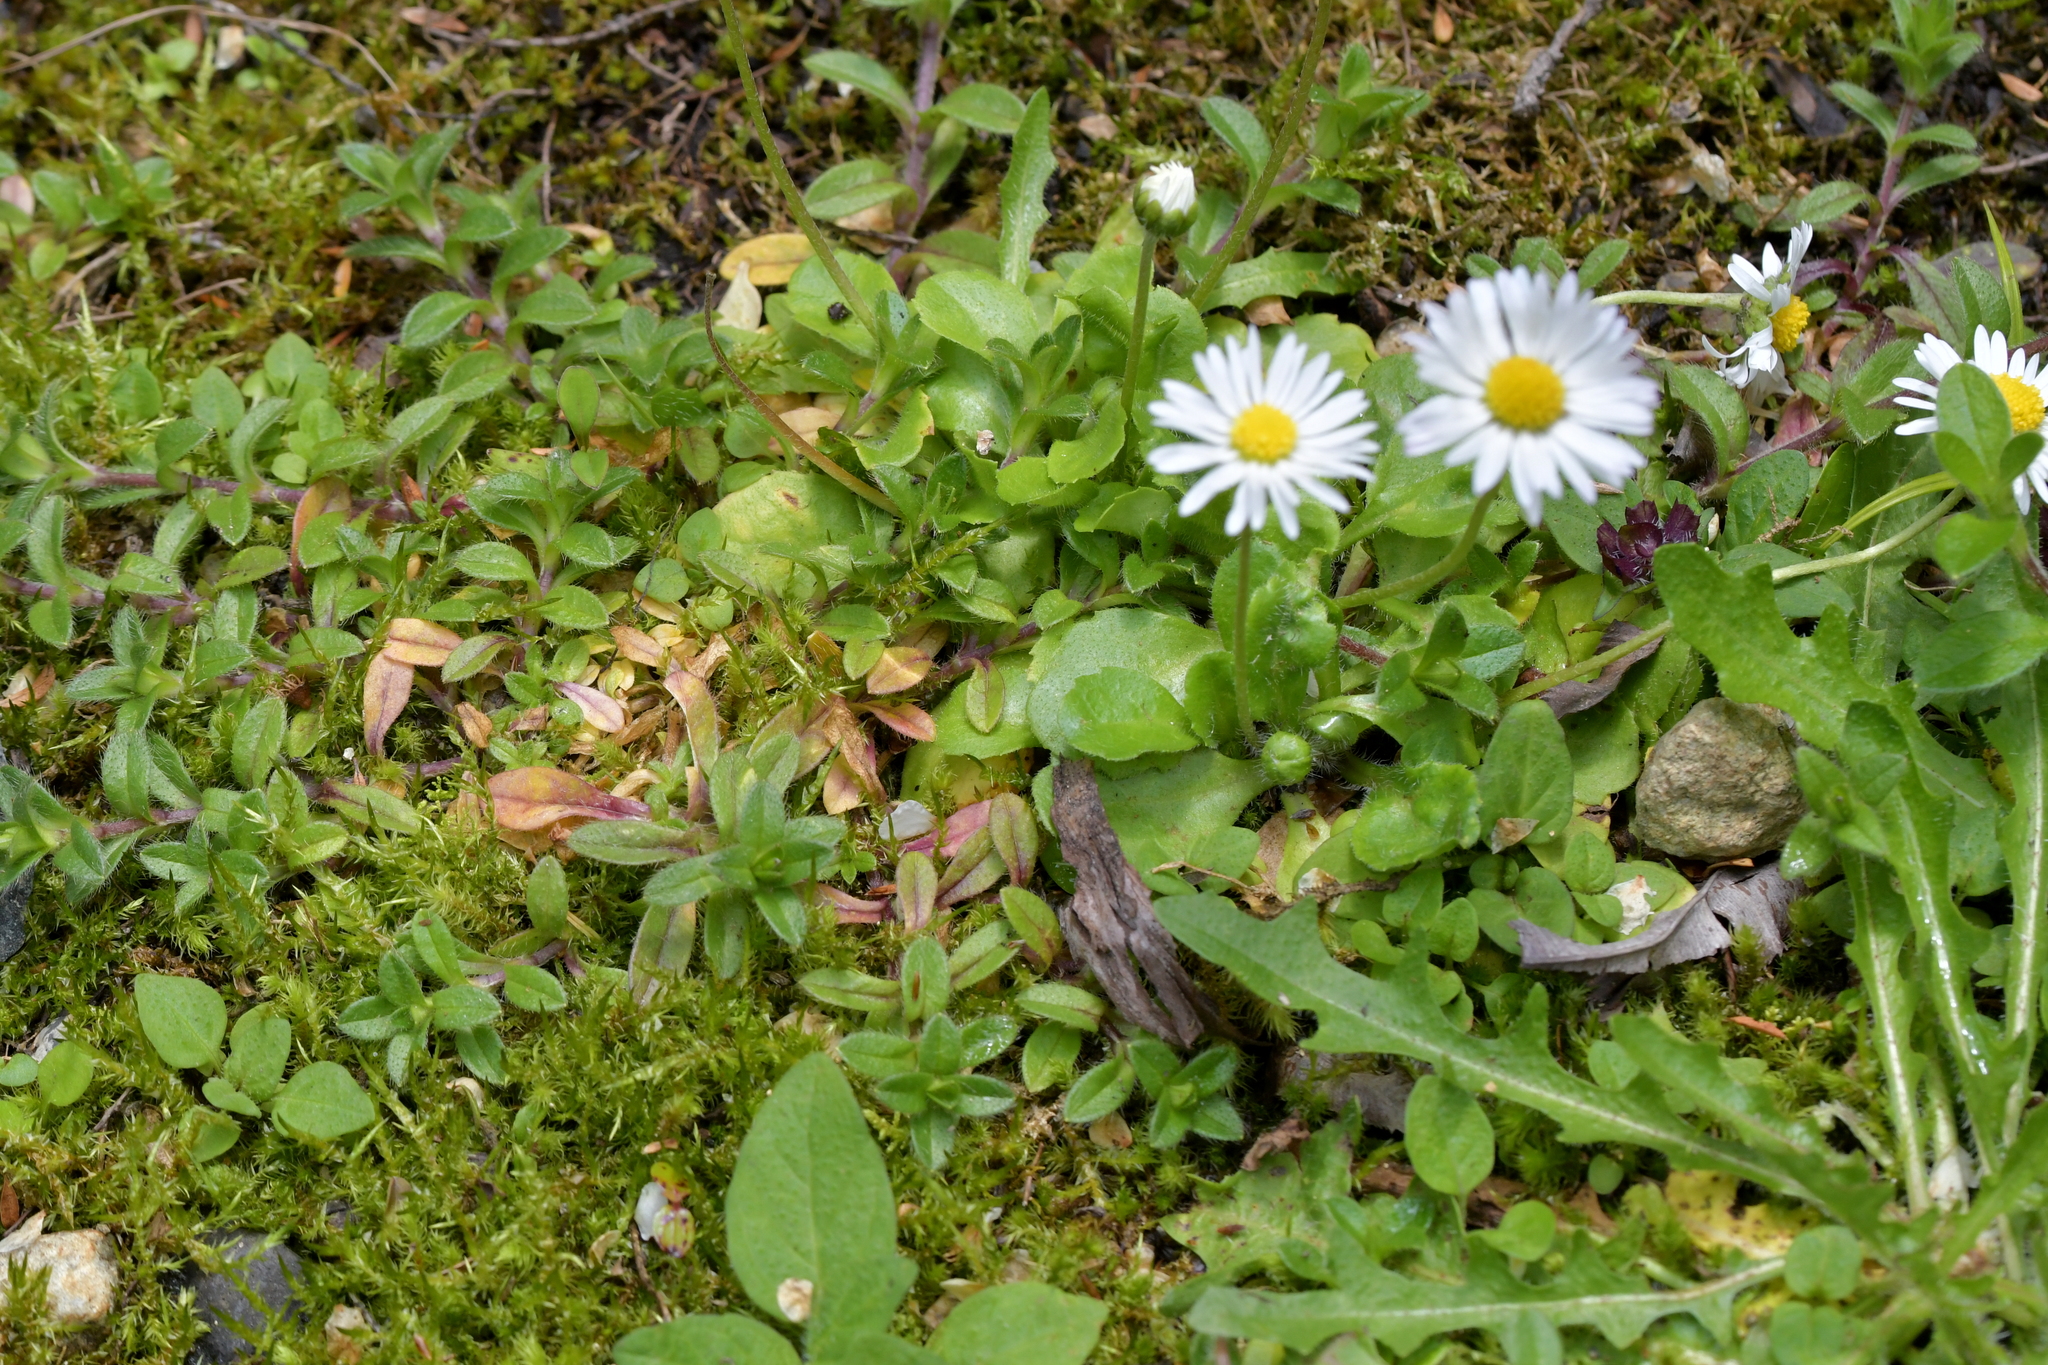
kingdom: Plantae
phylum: Tracheophyta
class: Magnoliopsida
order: Asterales
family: Asteraceae
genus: Bellis
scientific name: Bellis perennis
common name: Lawndaisy
